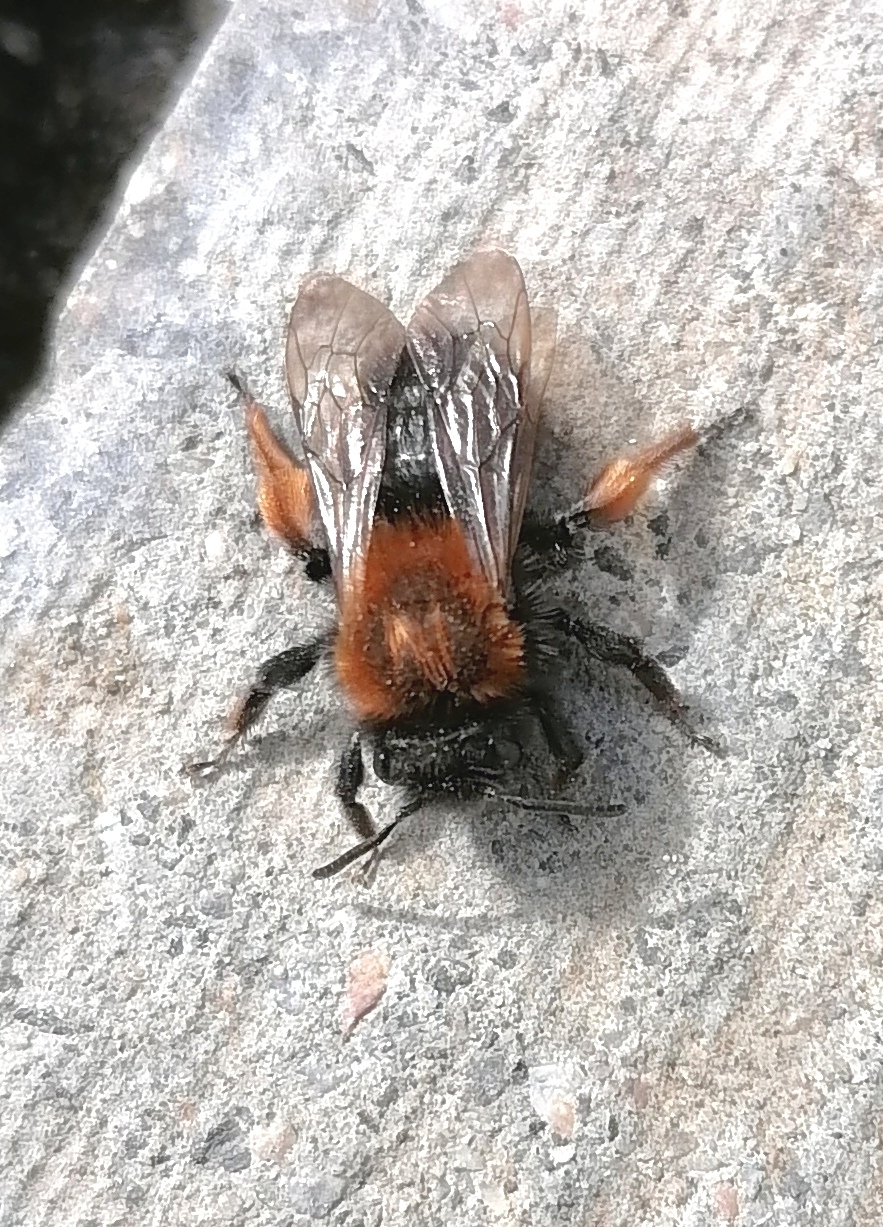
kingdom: Animalia
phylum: Arthropoda
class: Insecta
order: Hymenoptera
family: Andrenidae
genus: Andrena
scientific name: Andrena clarkella
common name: Clarke's mining bee
